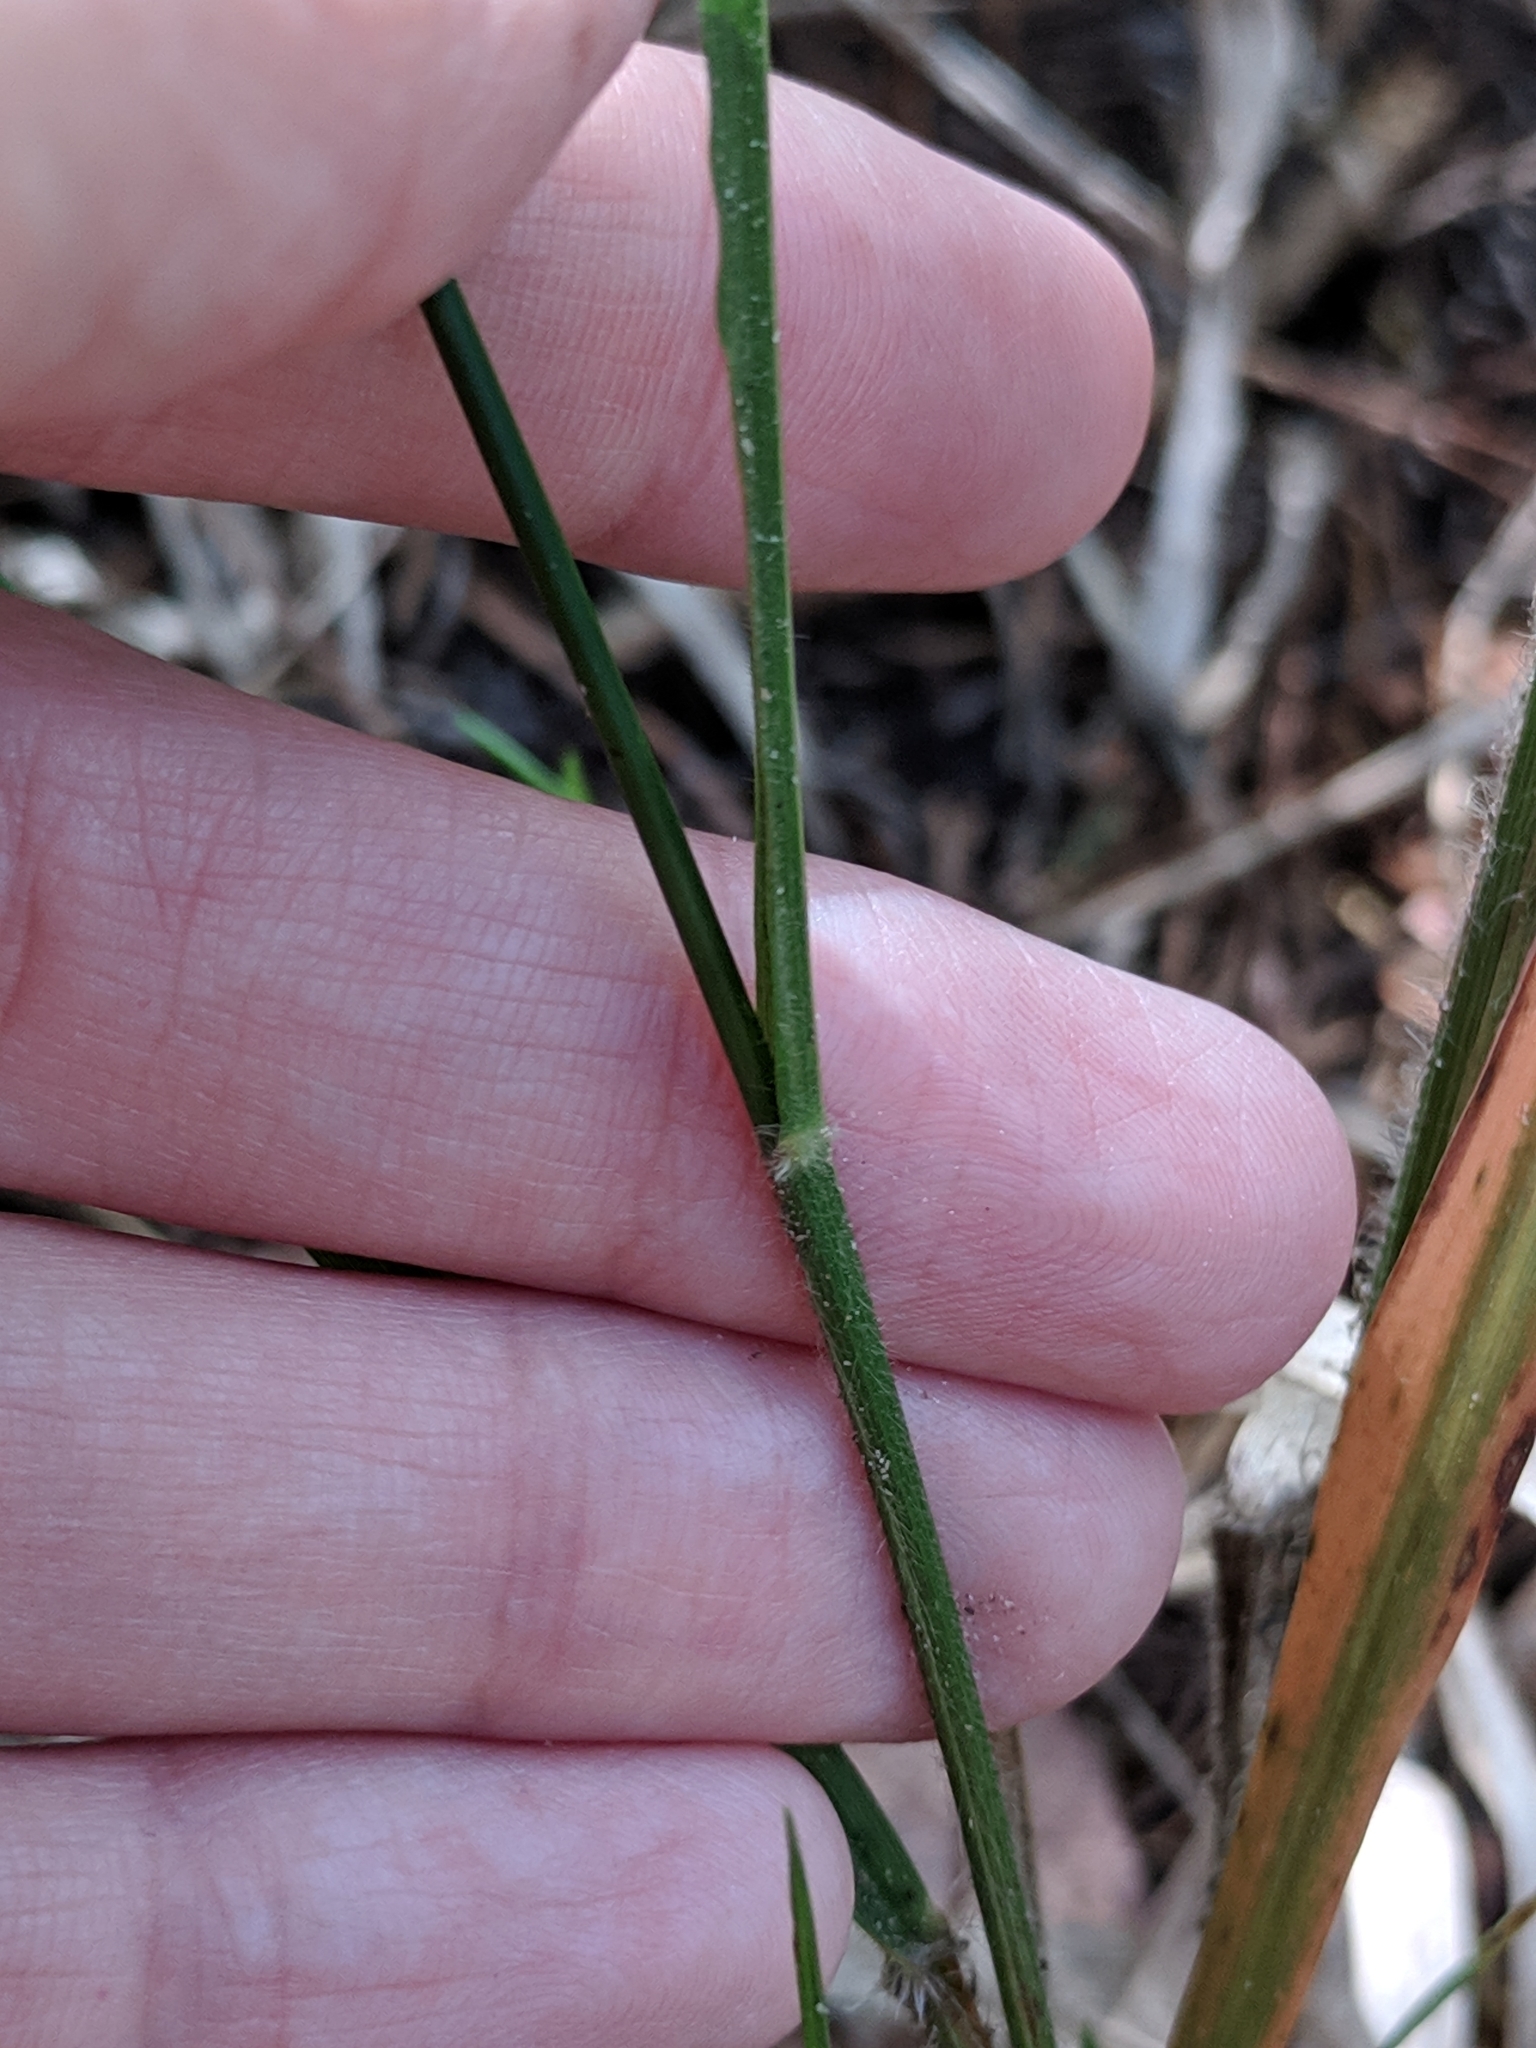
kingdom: Plantae
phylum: Tracheophyta
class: Liliopsida
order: Poales
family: Poaceae
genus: Chasmanthium
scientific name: Chasmanthium laxum
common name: Slender chasmanthium
